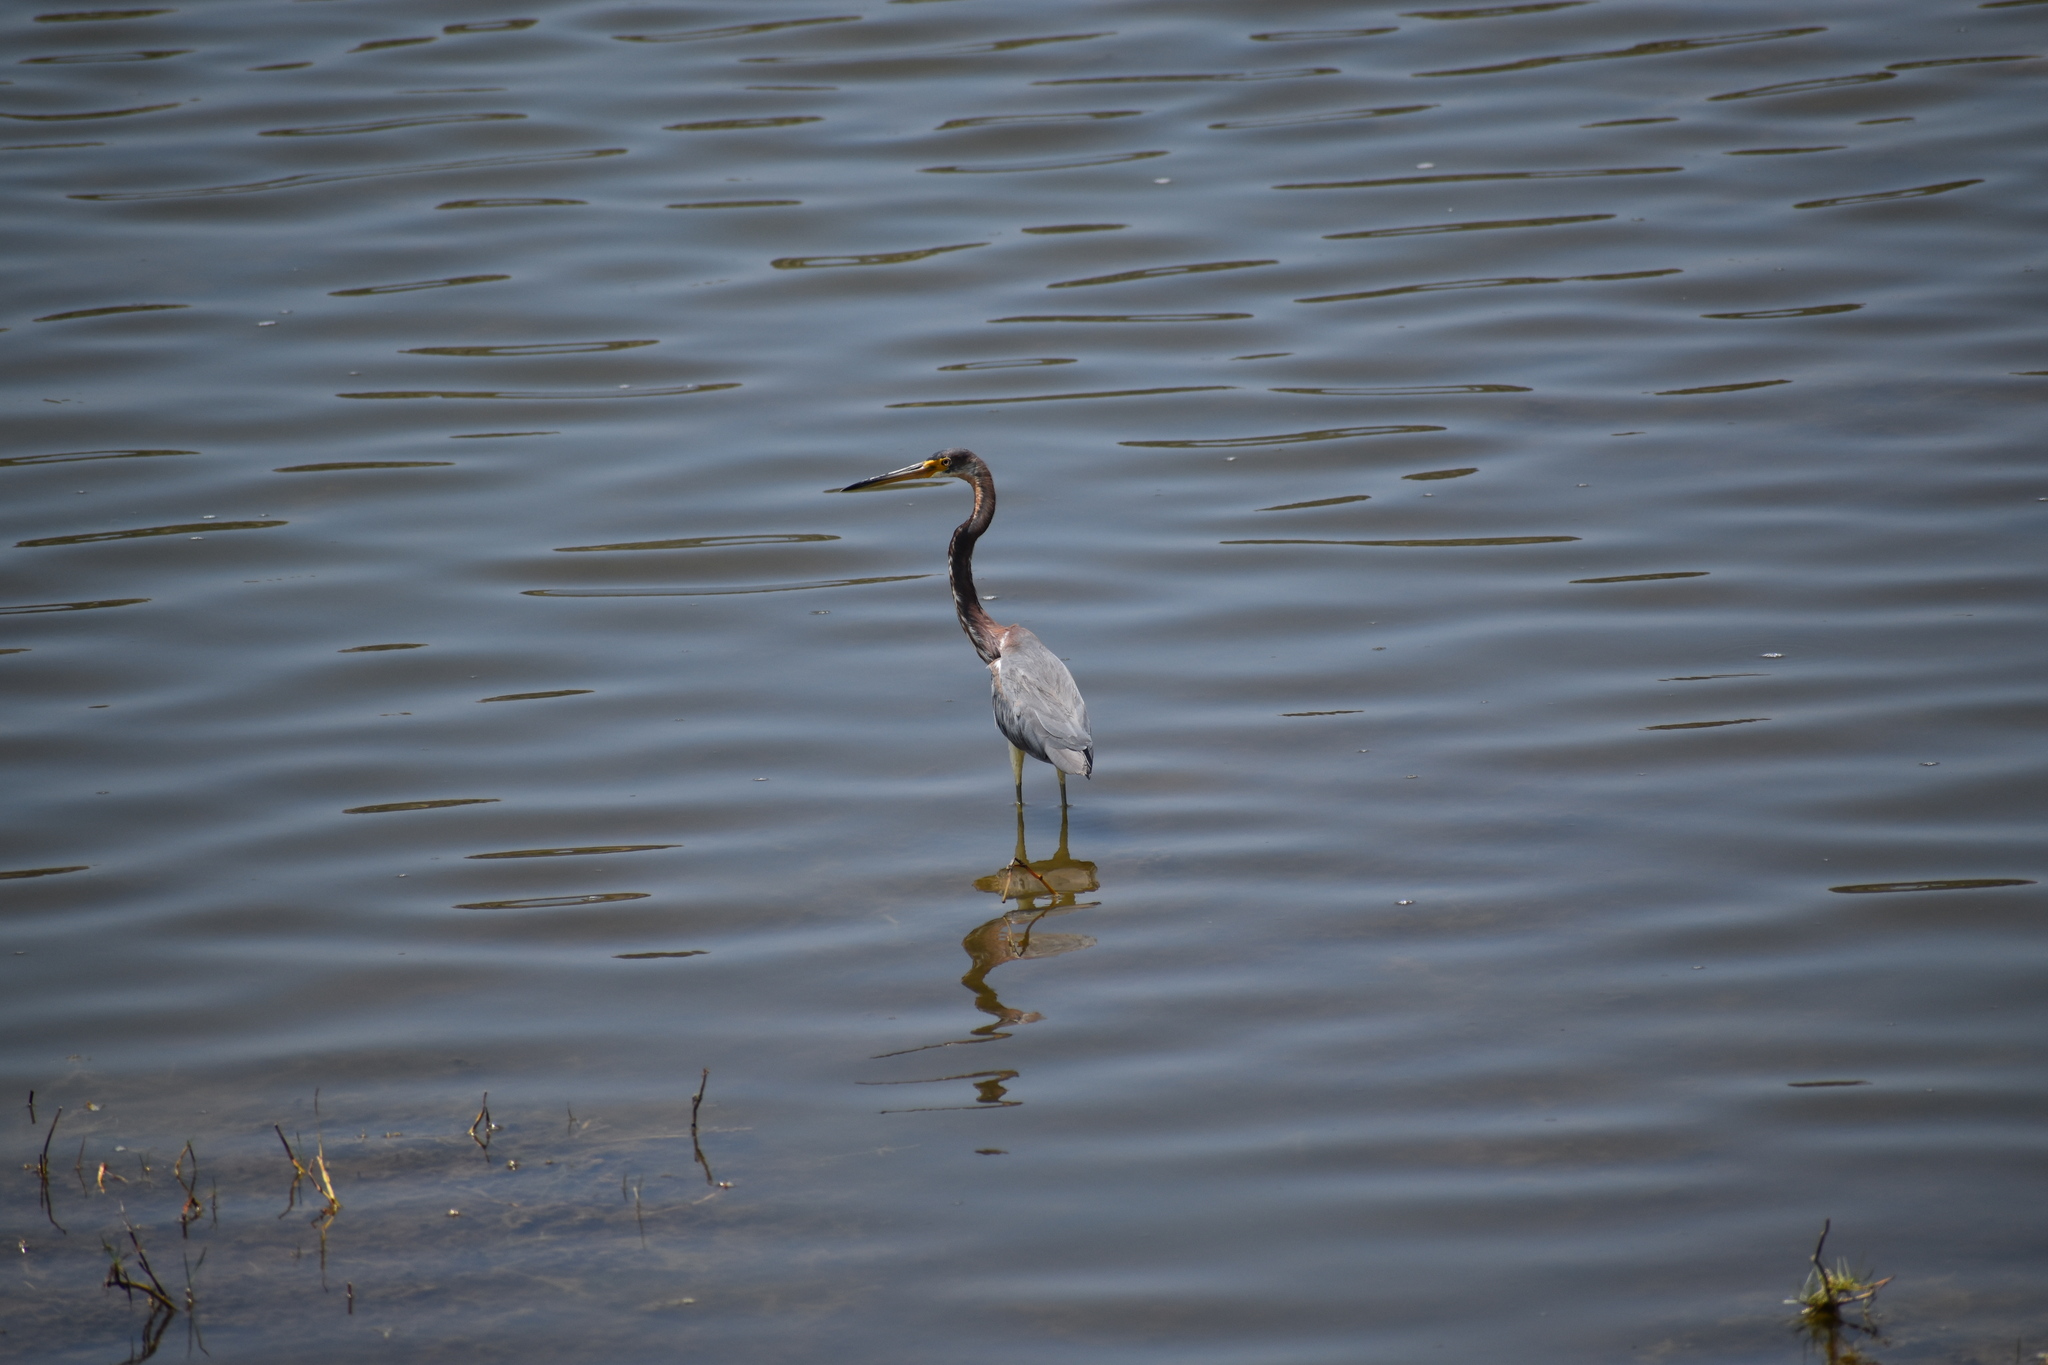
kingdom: Animalia
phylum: Chordata
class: Aves
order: Pelecaniformes
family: Ardeidae
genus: Egretta
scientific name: Egretta tricolor
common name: Tricolored heron
